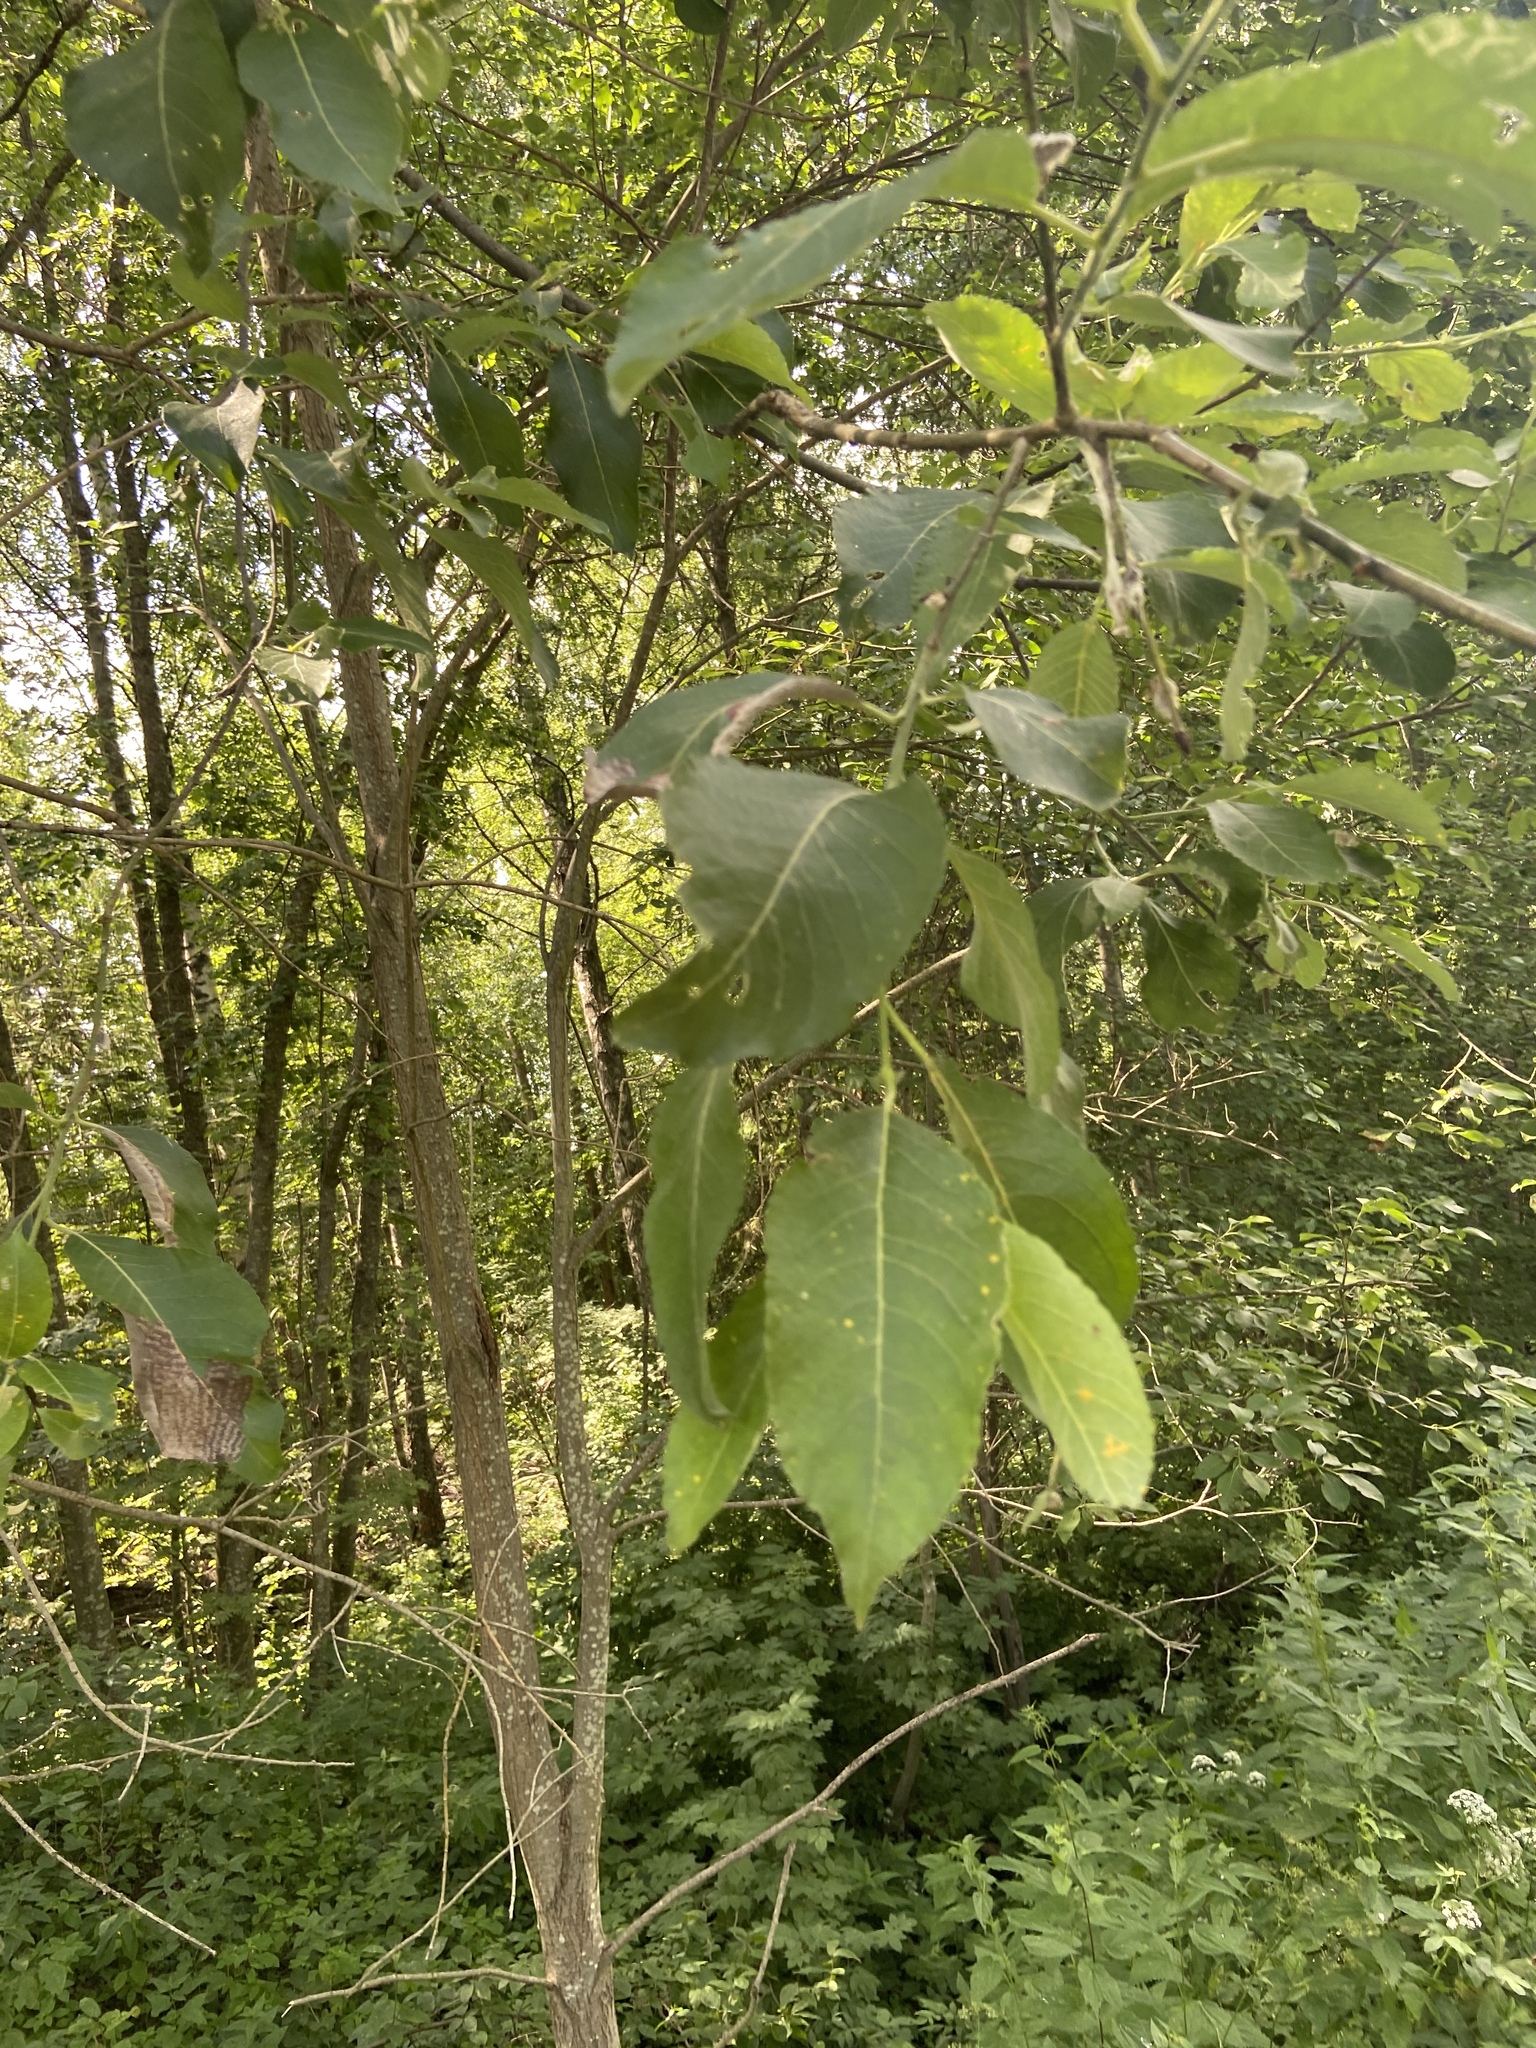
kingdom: Plantae
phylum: Tracheophyta
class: Magnoliopsida
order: Malpighiales
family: Salicaceae
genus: Salix
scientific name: Salix caprea
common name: Goat willow
